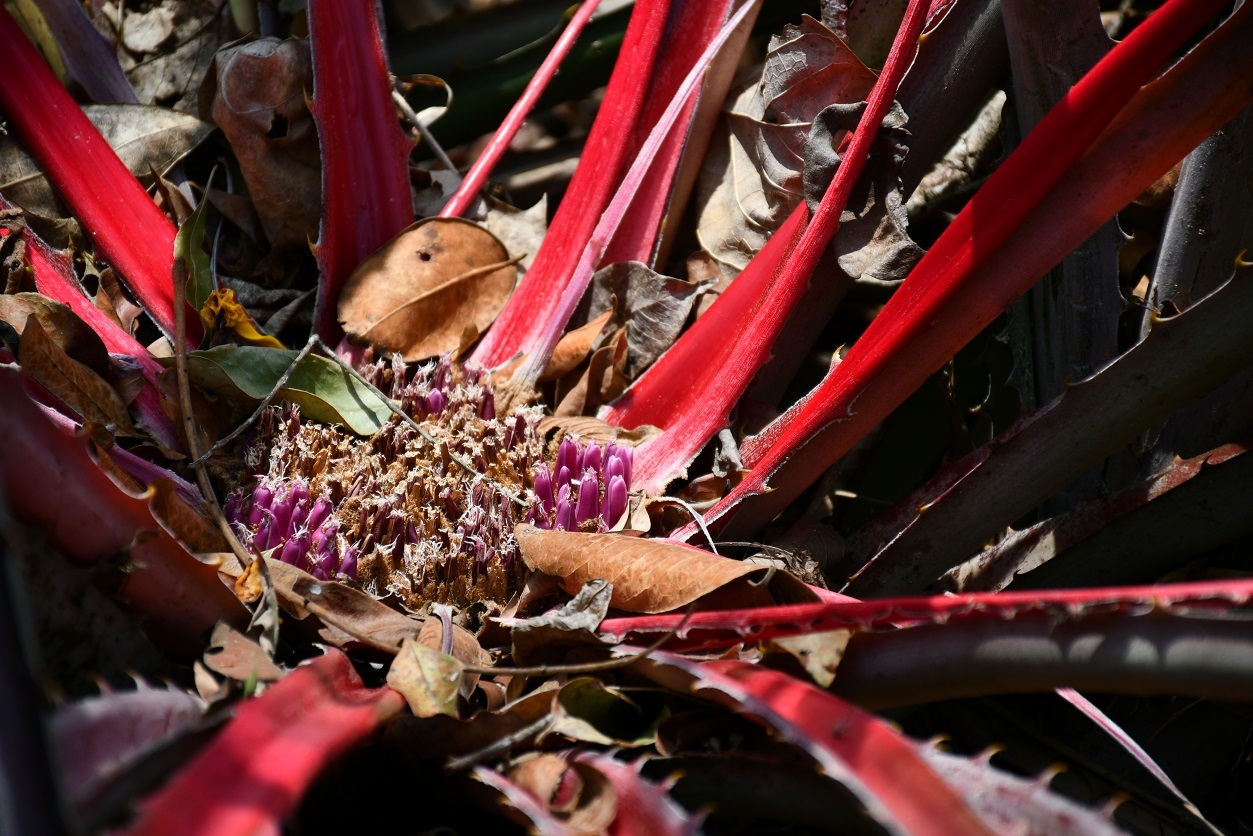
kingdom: Plantae
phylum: Tracheophyta
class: Liliopsida
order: Poales
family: Bromeliaceae
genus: Bromelia
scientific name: Bromelia karatas
